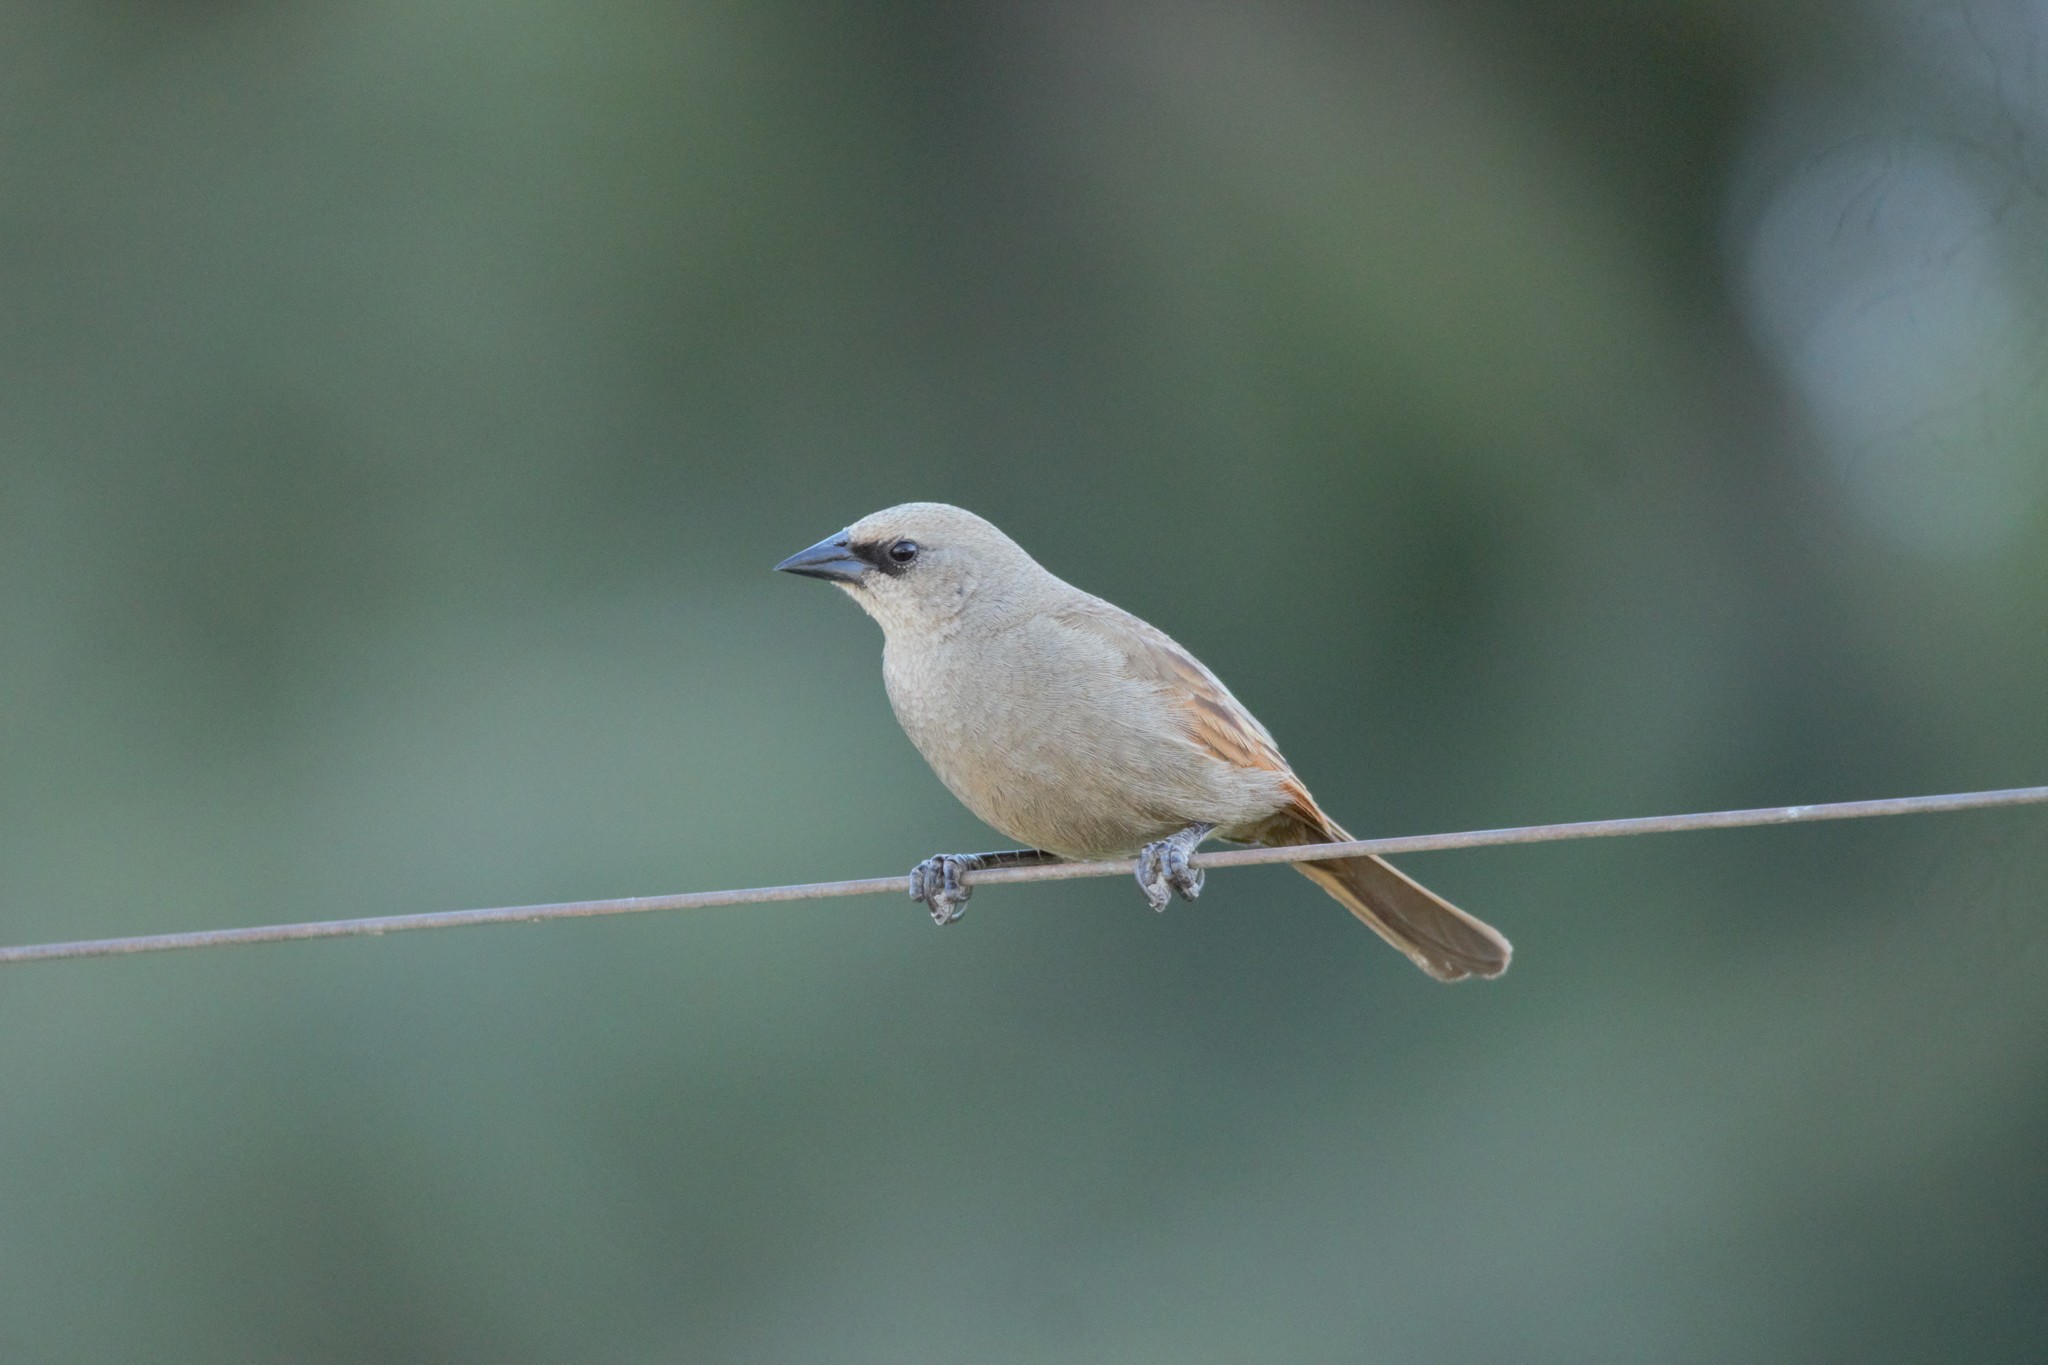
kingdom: Animalia
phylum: Chordata
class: Aves
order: Passeriformes
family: Icteridae
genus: Agelaioides
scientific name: Agelaioides badius
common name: Baywing
